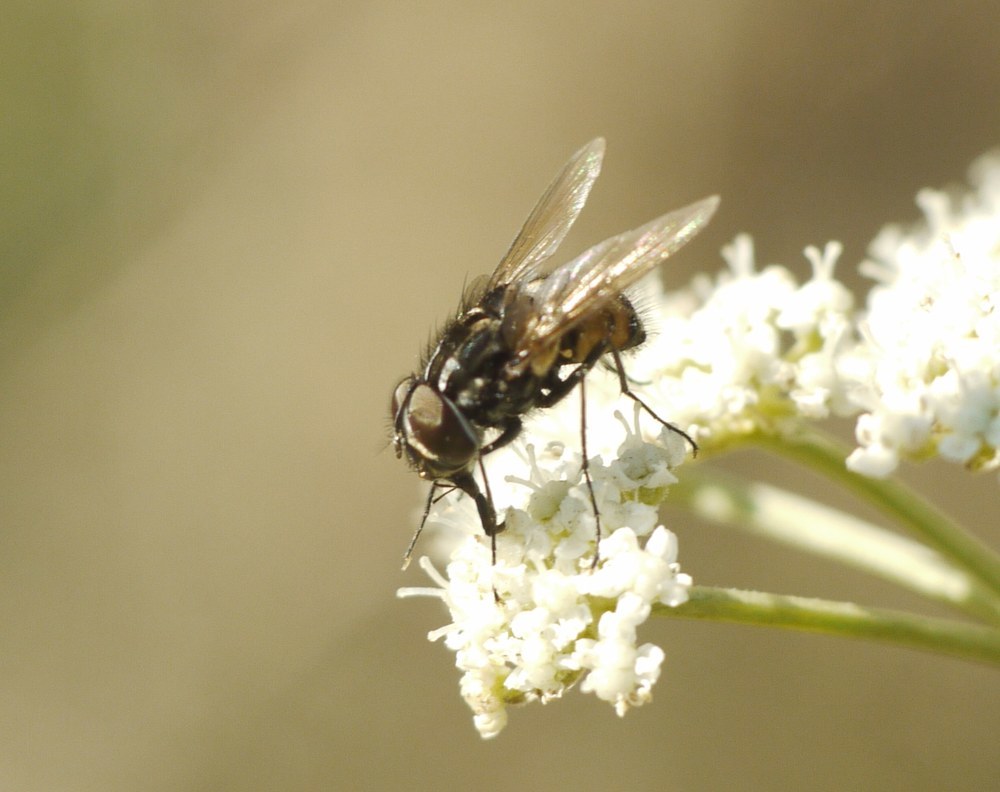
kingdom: Animalia
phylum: Arthropoda
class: Insecta
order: Diptera
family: Muscidae
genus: Graphomya
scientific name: Graphomya maculata
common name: Muscid fly
